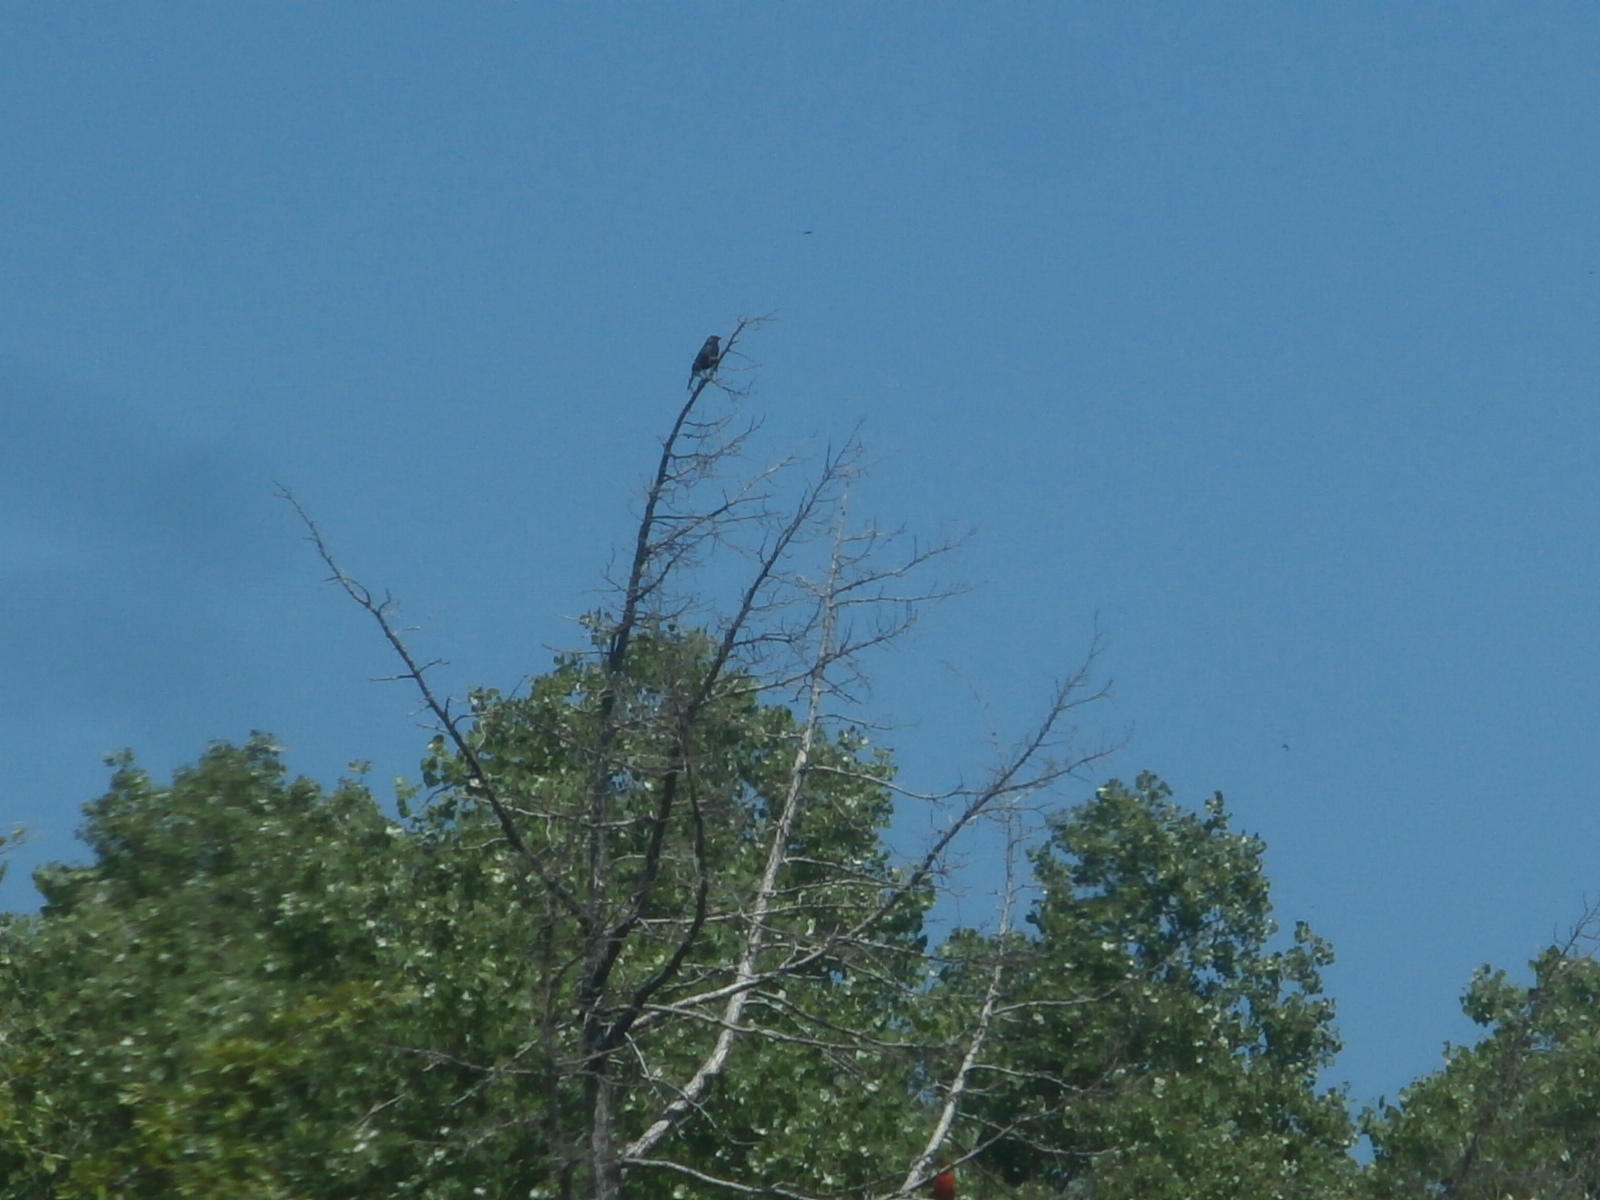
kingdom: Animalia
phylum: Chordata
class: Aves
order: Passeriformes
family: Icteridae
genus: Molothrus
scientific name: Molothrus ater
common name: Brown-headed cowbird
